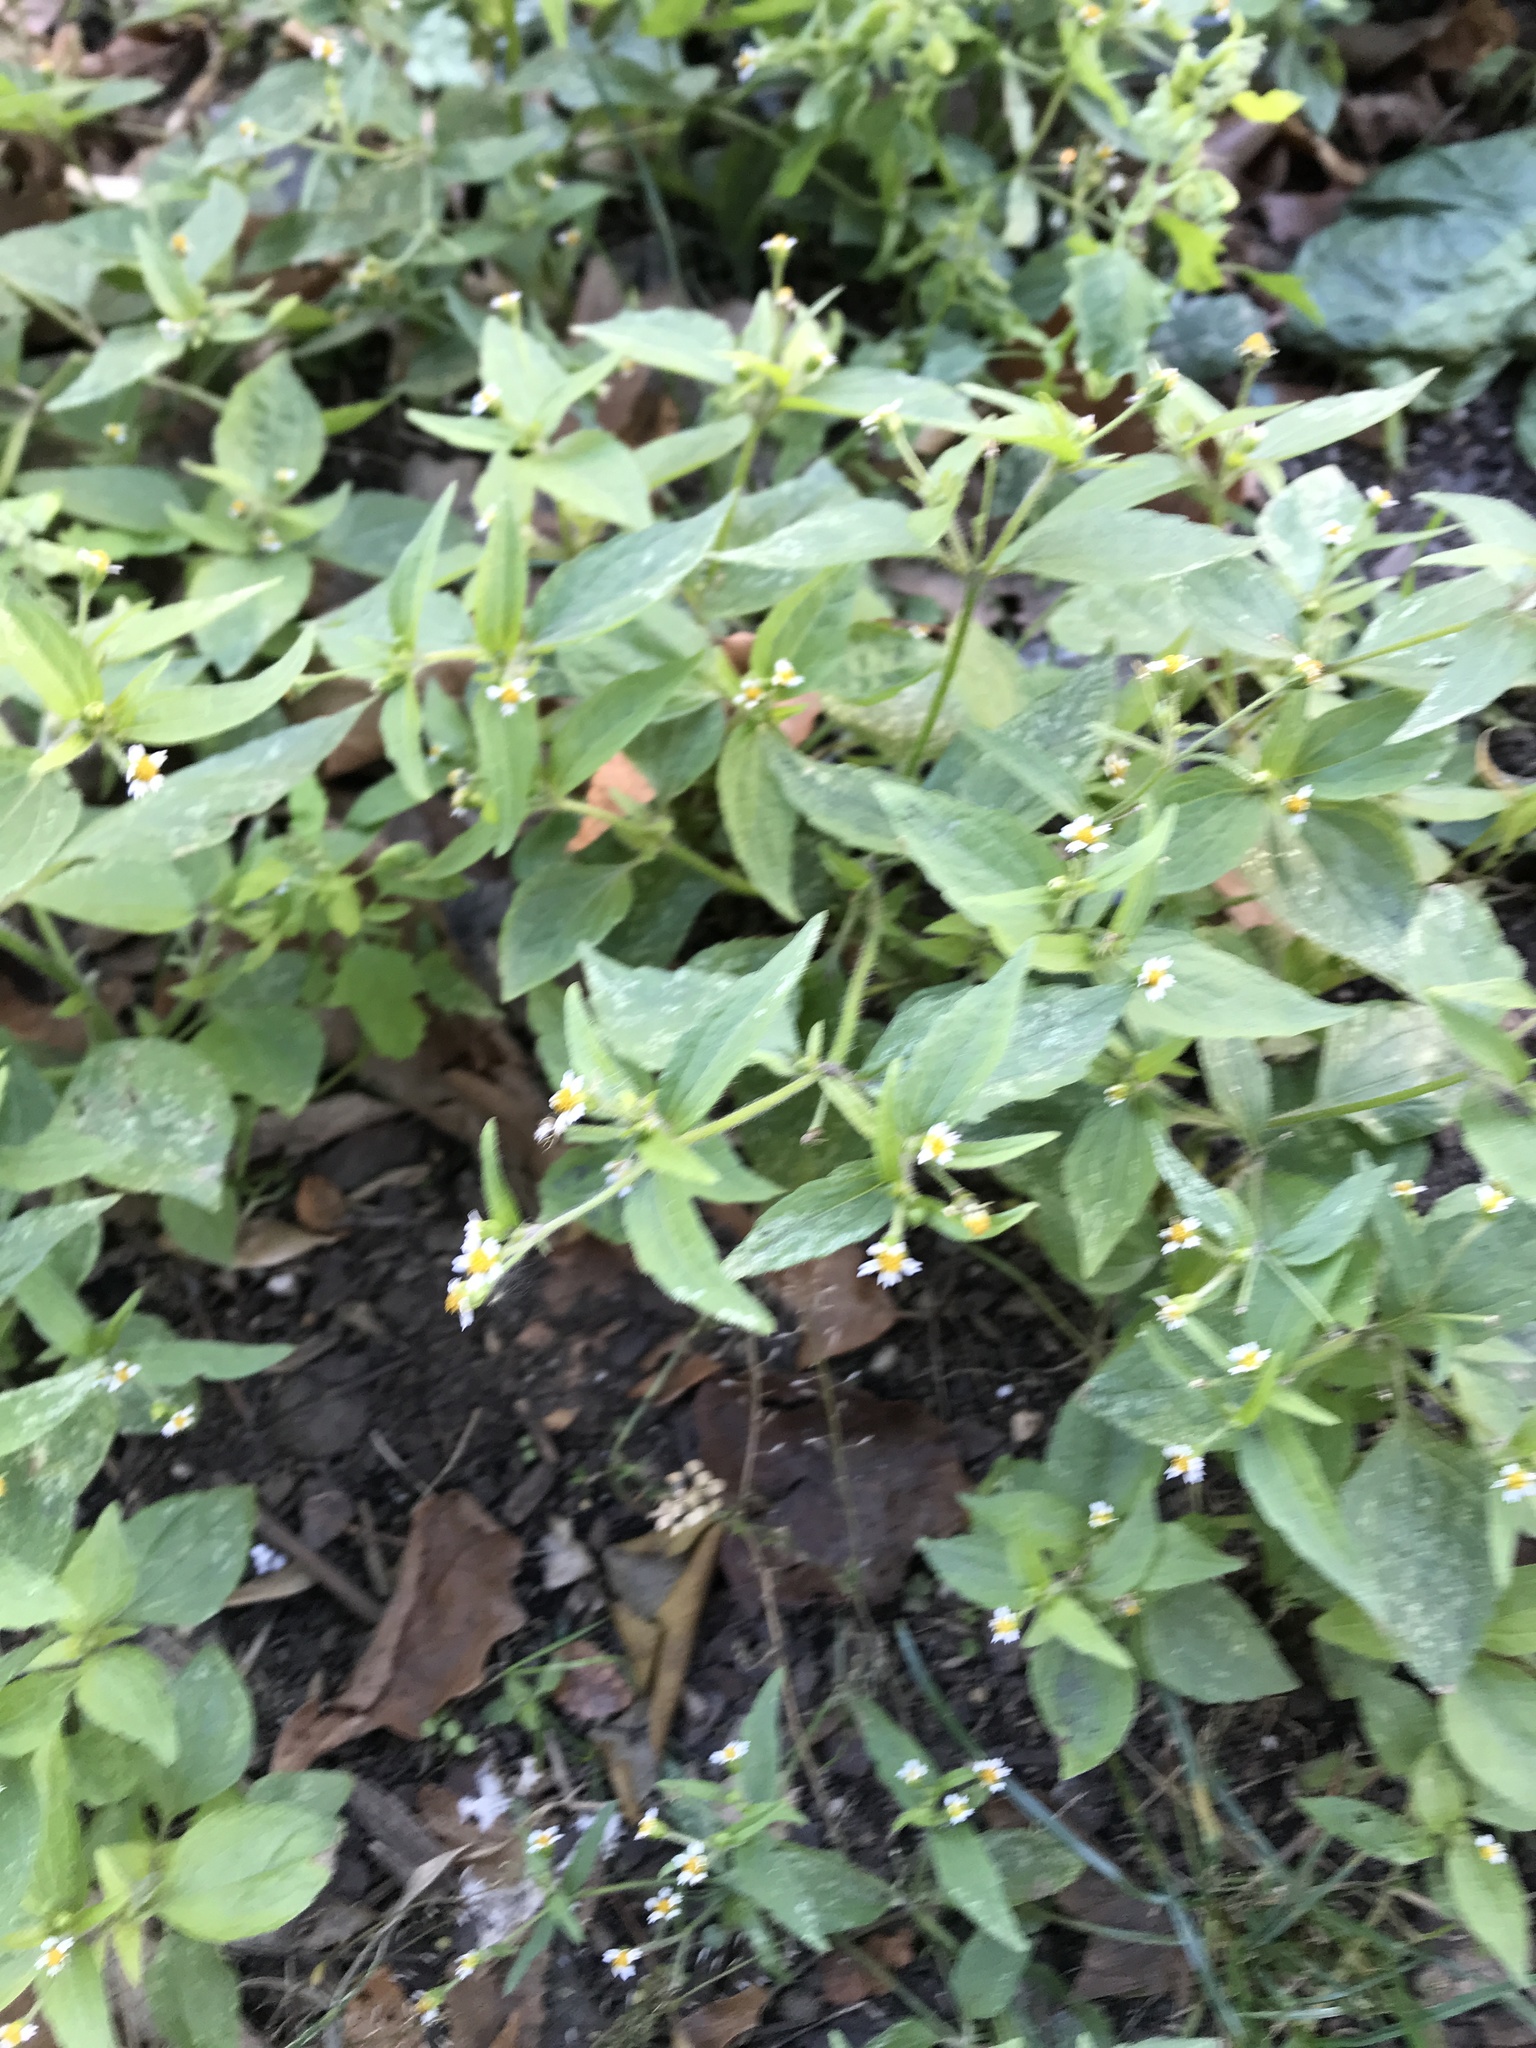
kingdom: Plantae
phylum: Tracheophyta
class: Magnoliopsida
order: Asterales
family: Asteraceae
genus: Galinsoga
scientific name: Galinsoga quadriradiata
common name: Shaggy soldier
